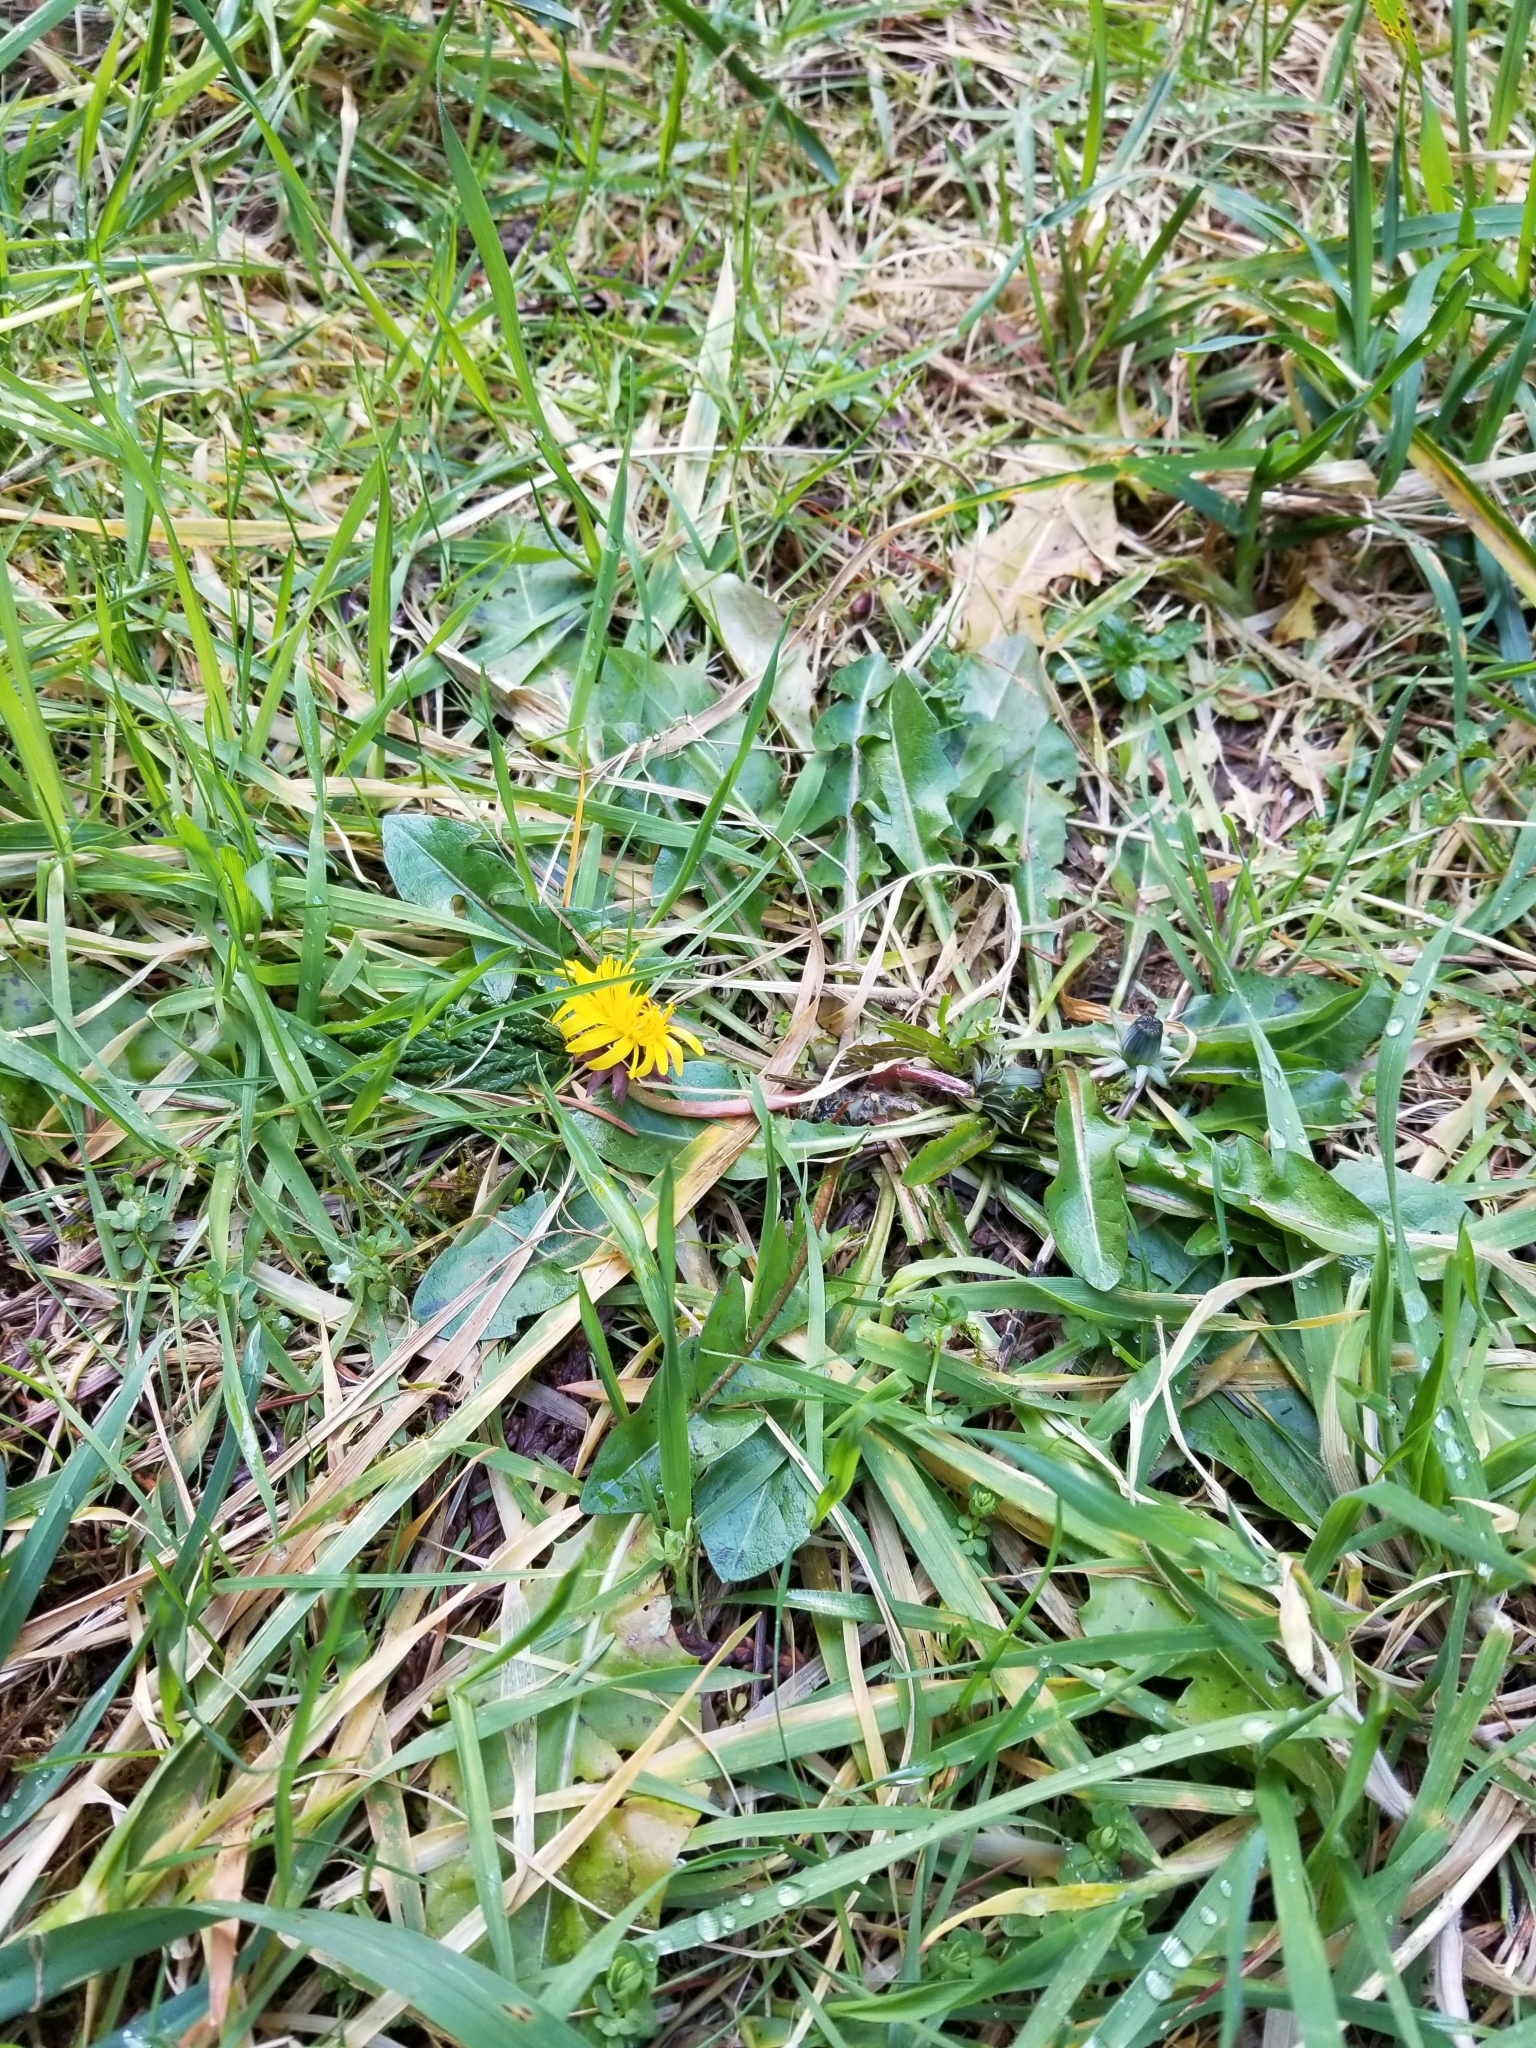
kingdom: Plantae
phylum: Tracheophyta
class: Magnoliopsida
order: Asterales
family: Asteraceae
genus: Taraxacum
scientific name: Taraxacum officinale
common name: Common dandelion
